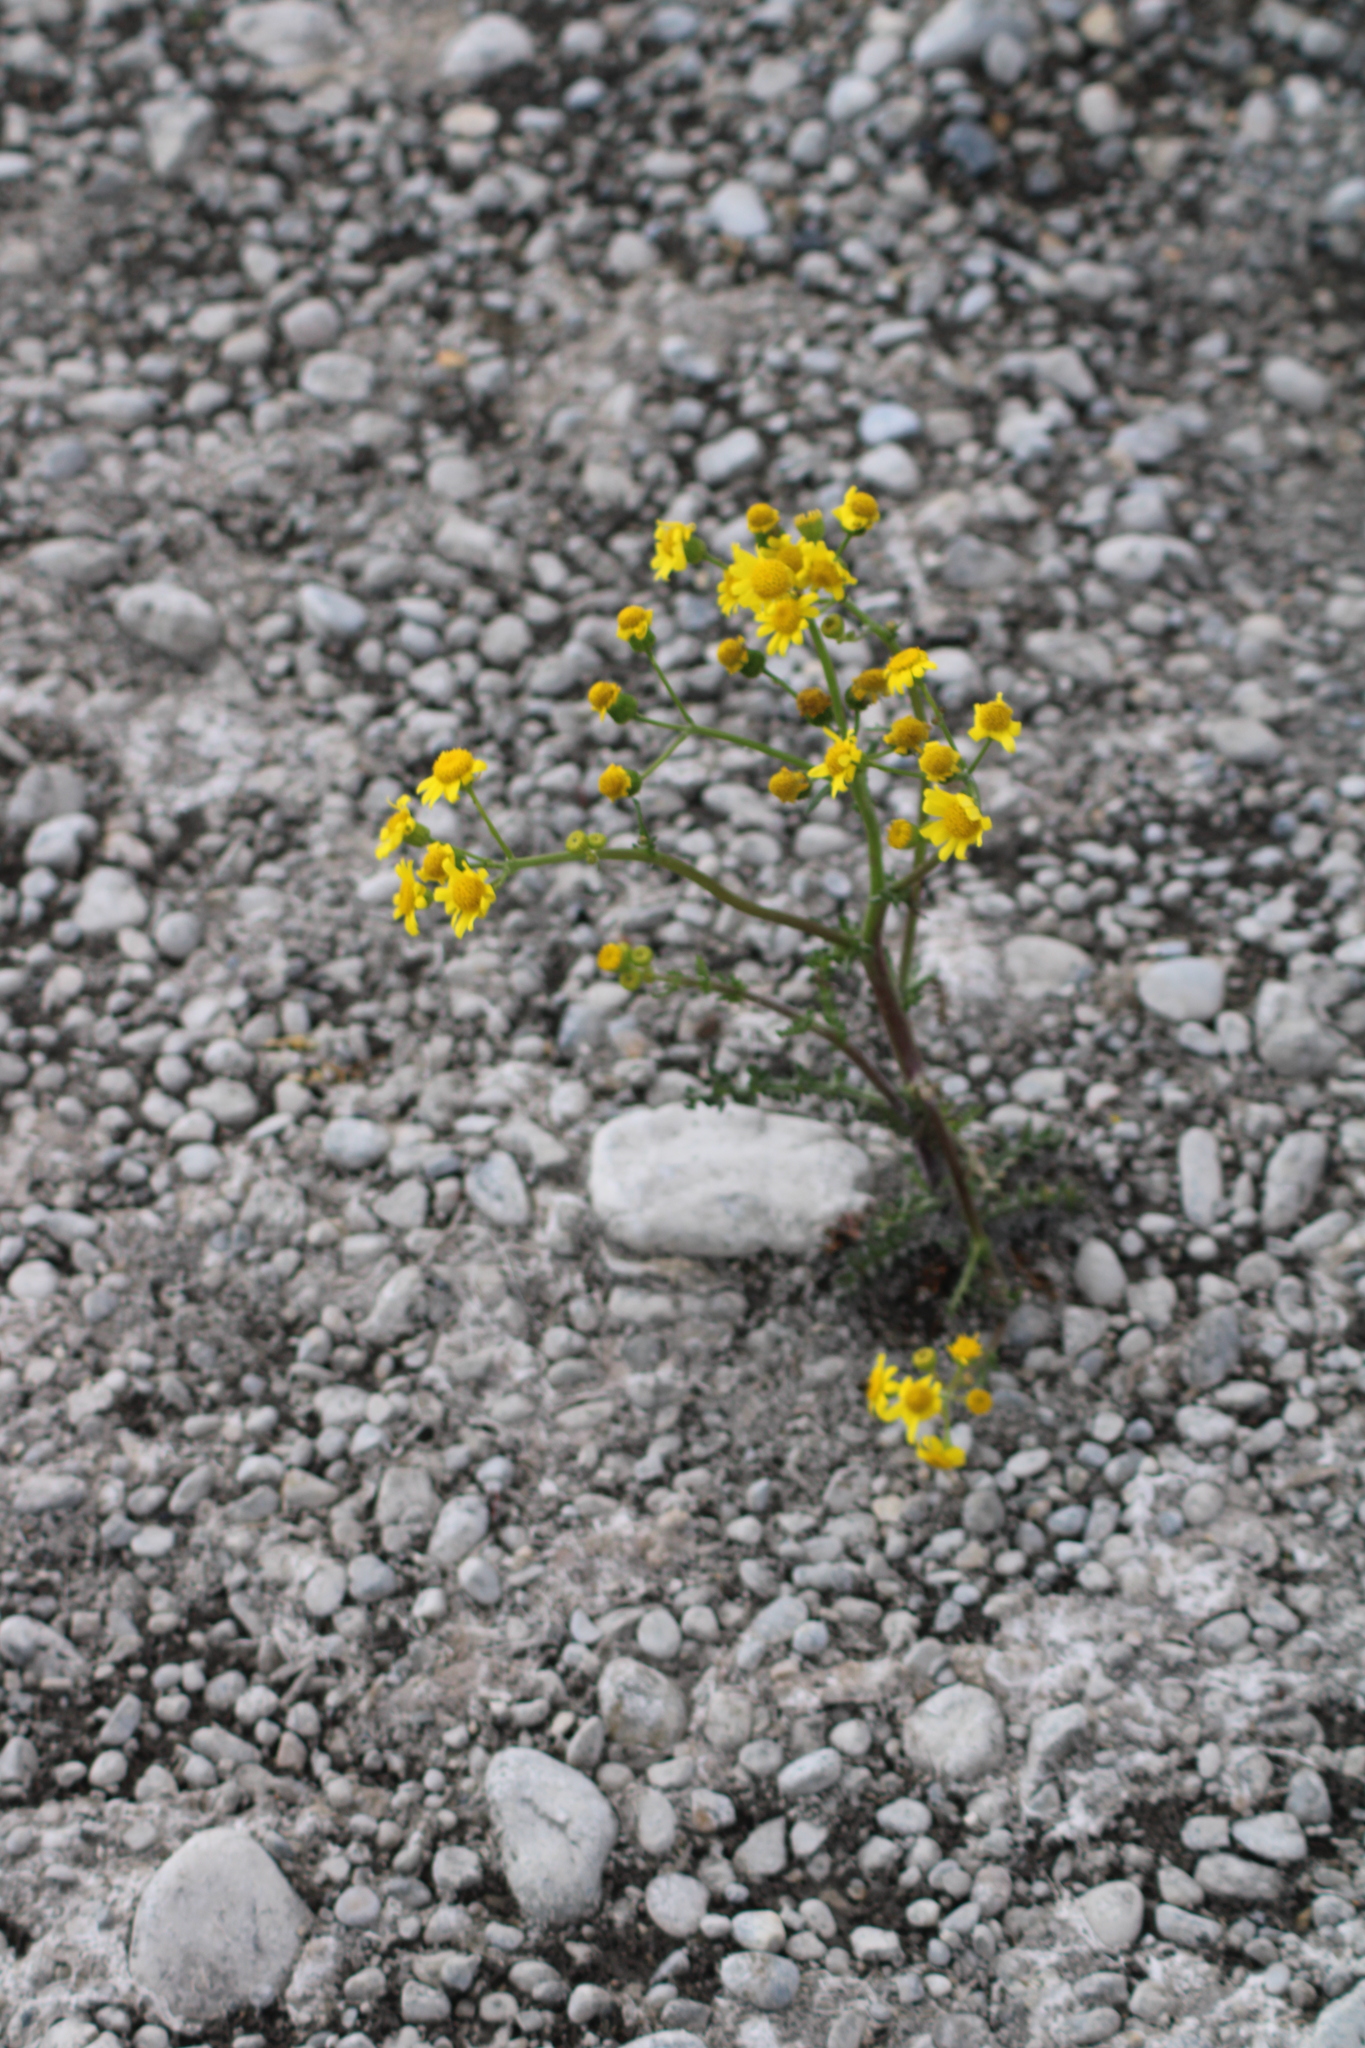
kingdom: Plantae
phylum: Tracheophyta
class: Magnoliopsida
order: Asterales
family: Asteraceae
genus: Senecio
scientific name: Senecio vernalis
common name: Eastern groundsel
